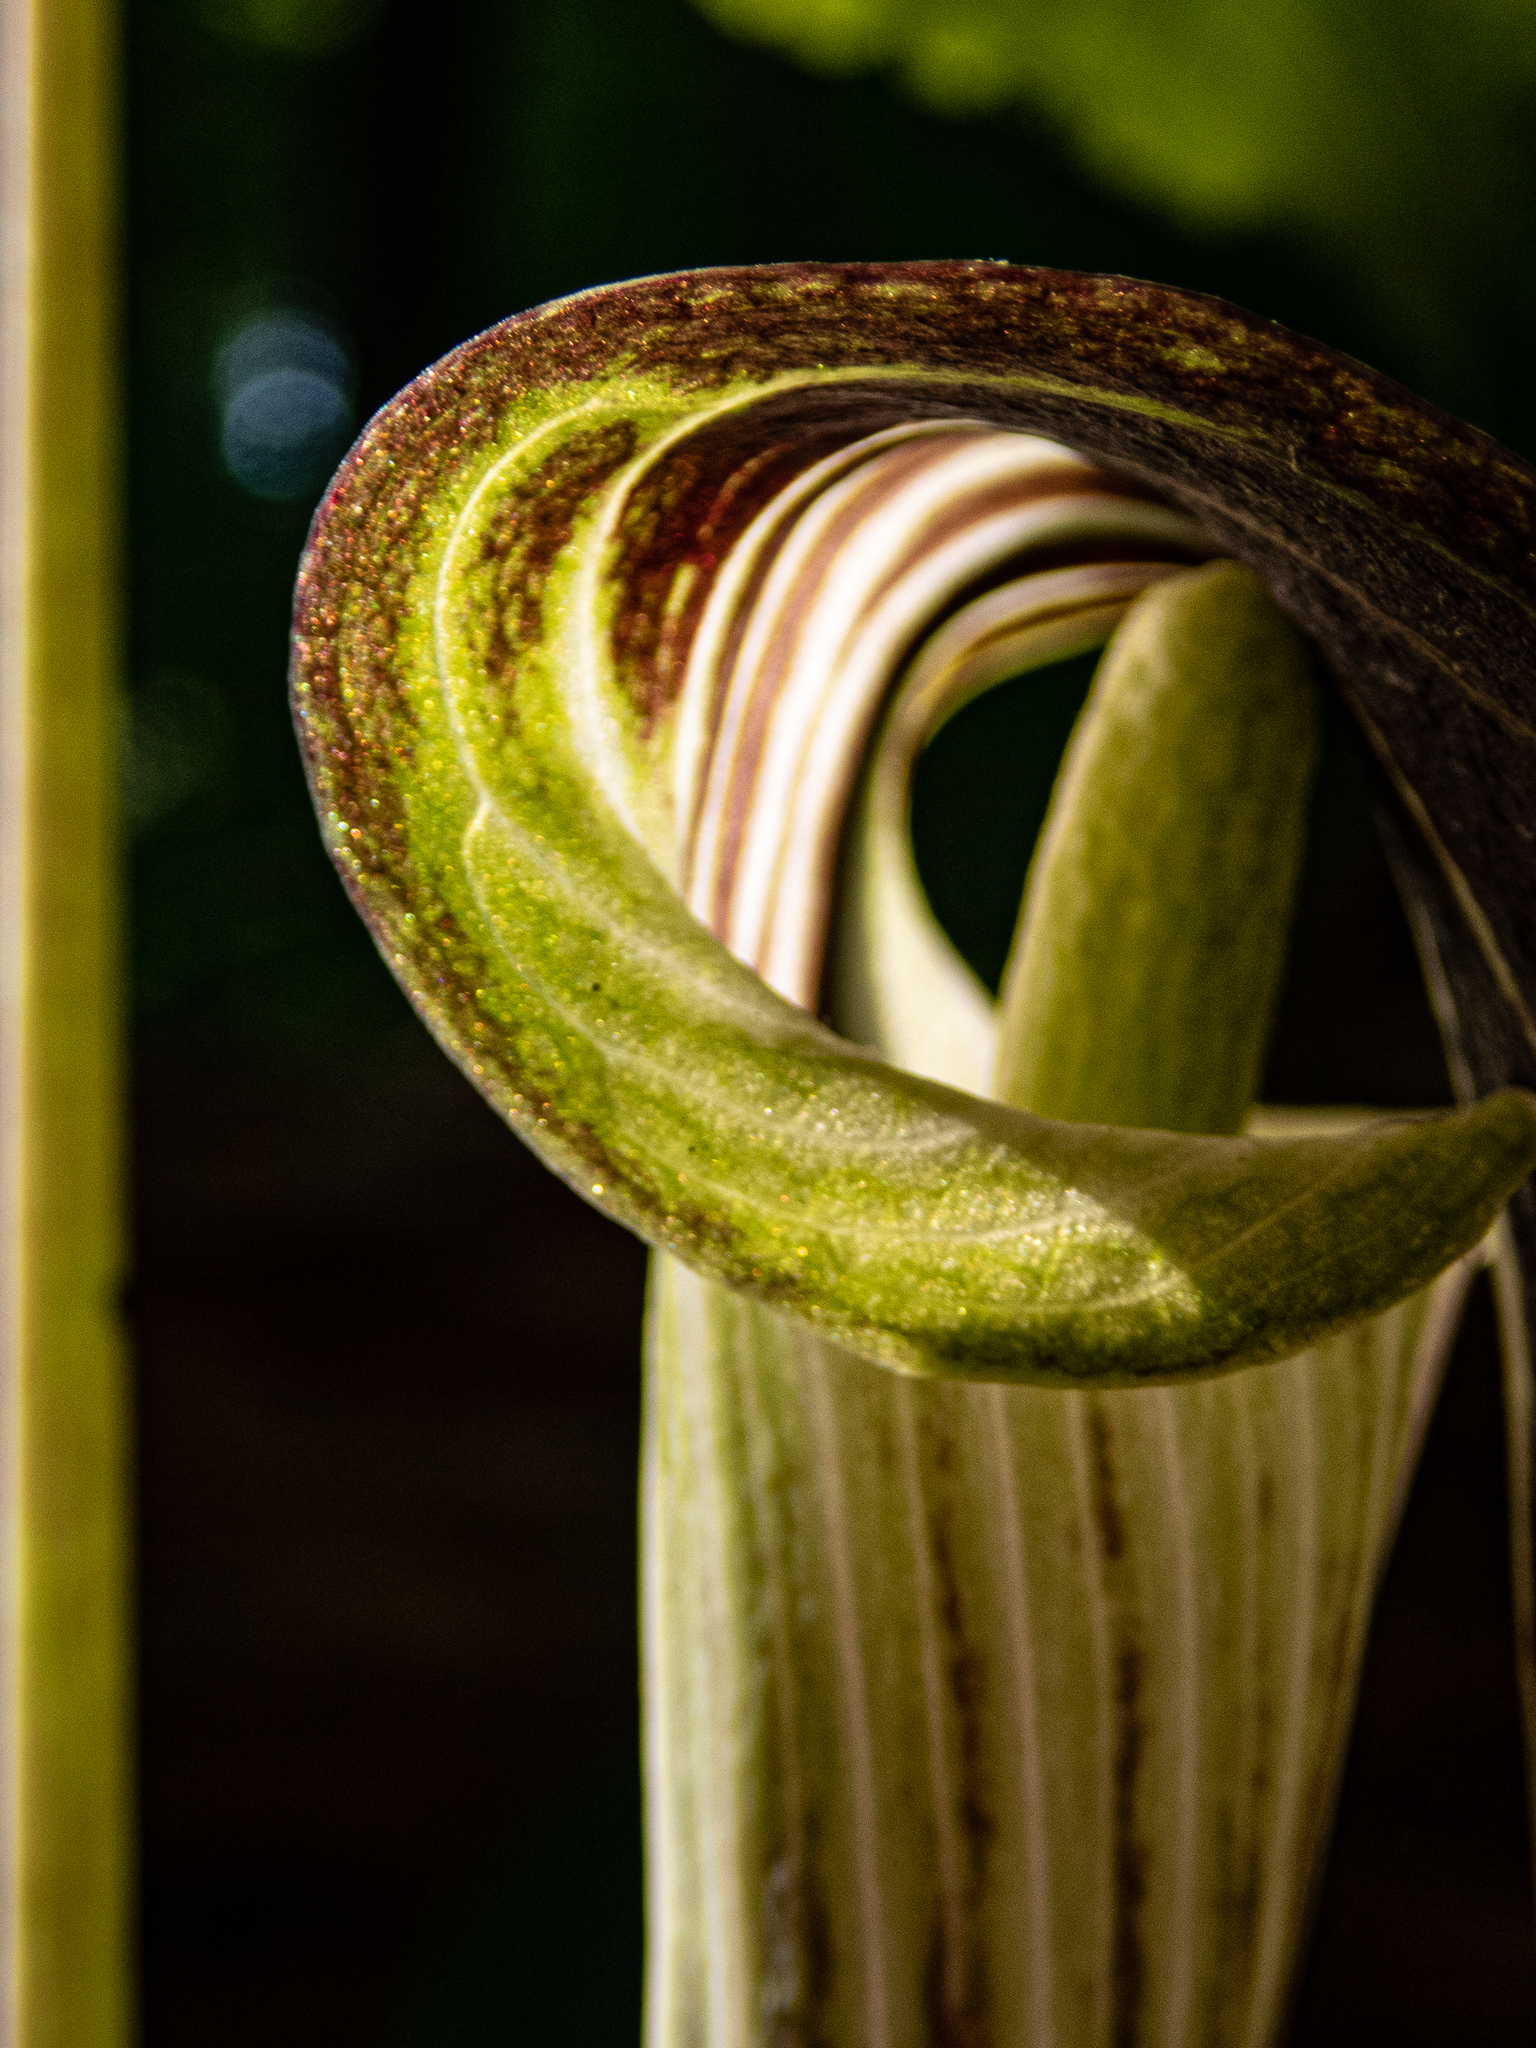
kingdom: Plantae
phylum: Tracheophyta
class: Liliopsida
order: Alismatales
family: Araceae
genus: Arisaema
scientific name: Arisaema triphyllum
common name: Jack-in-the-pulpit
